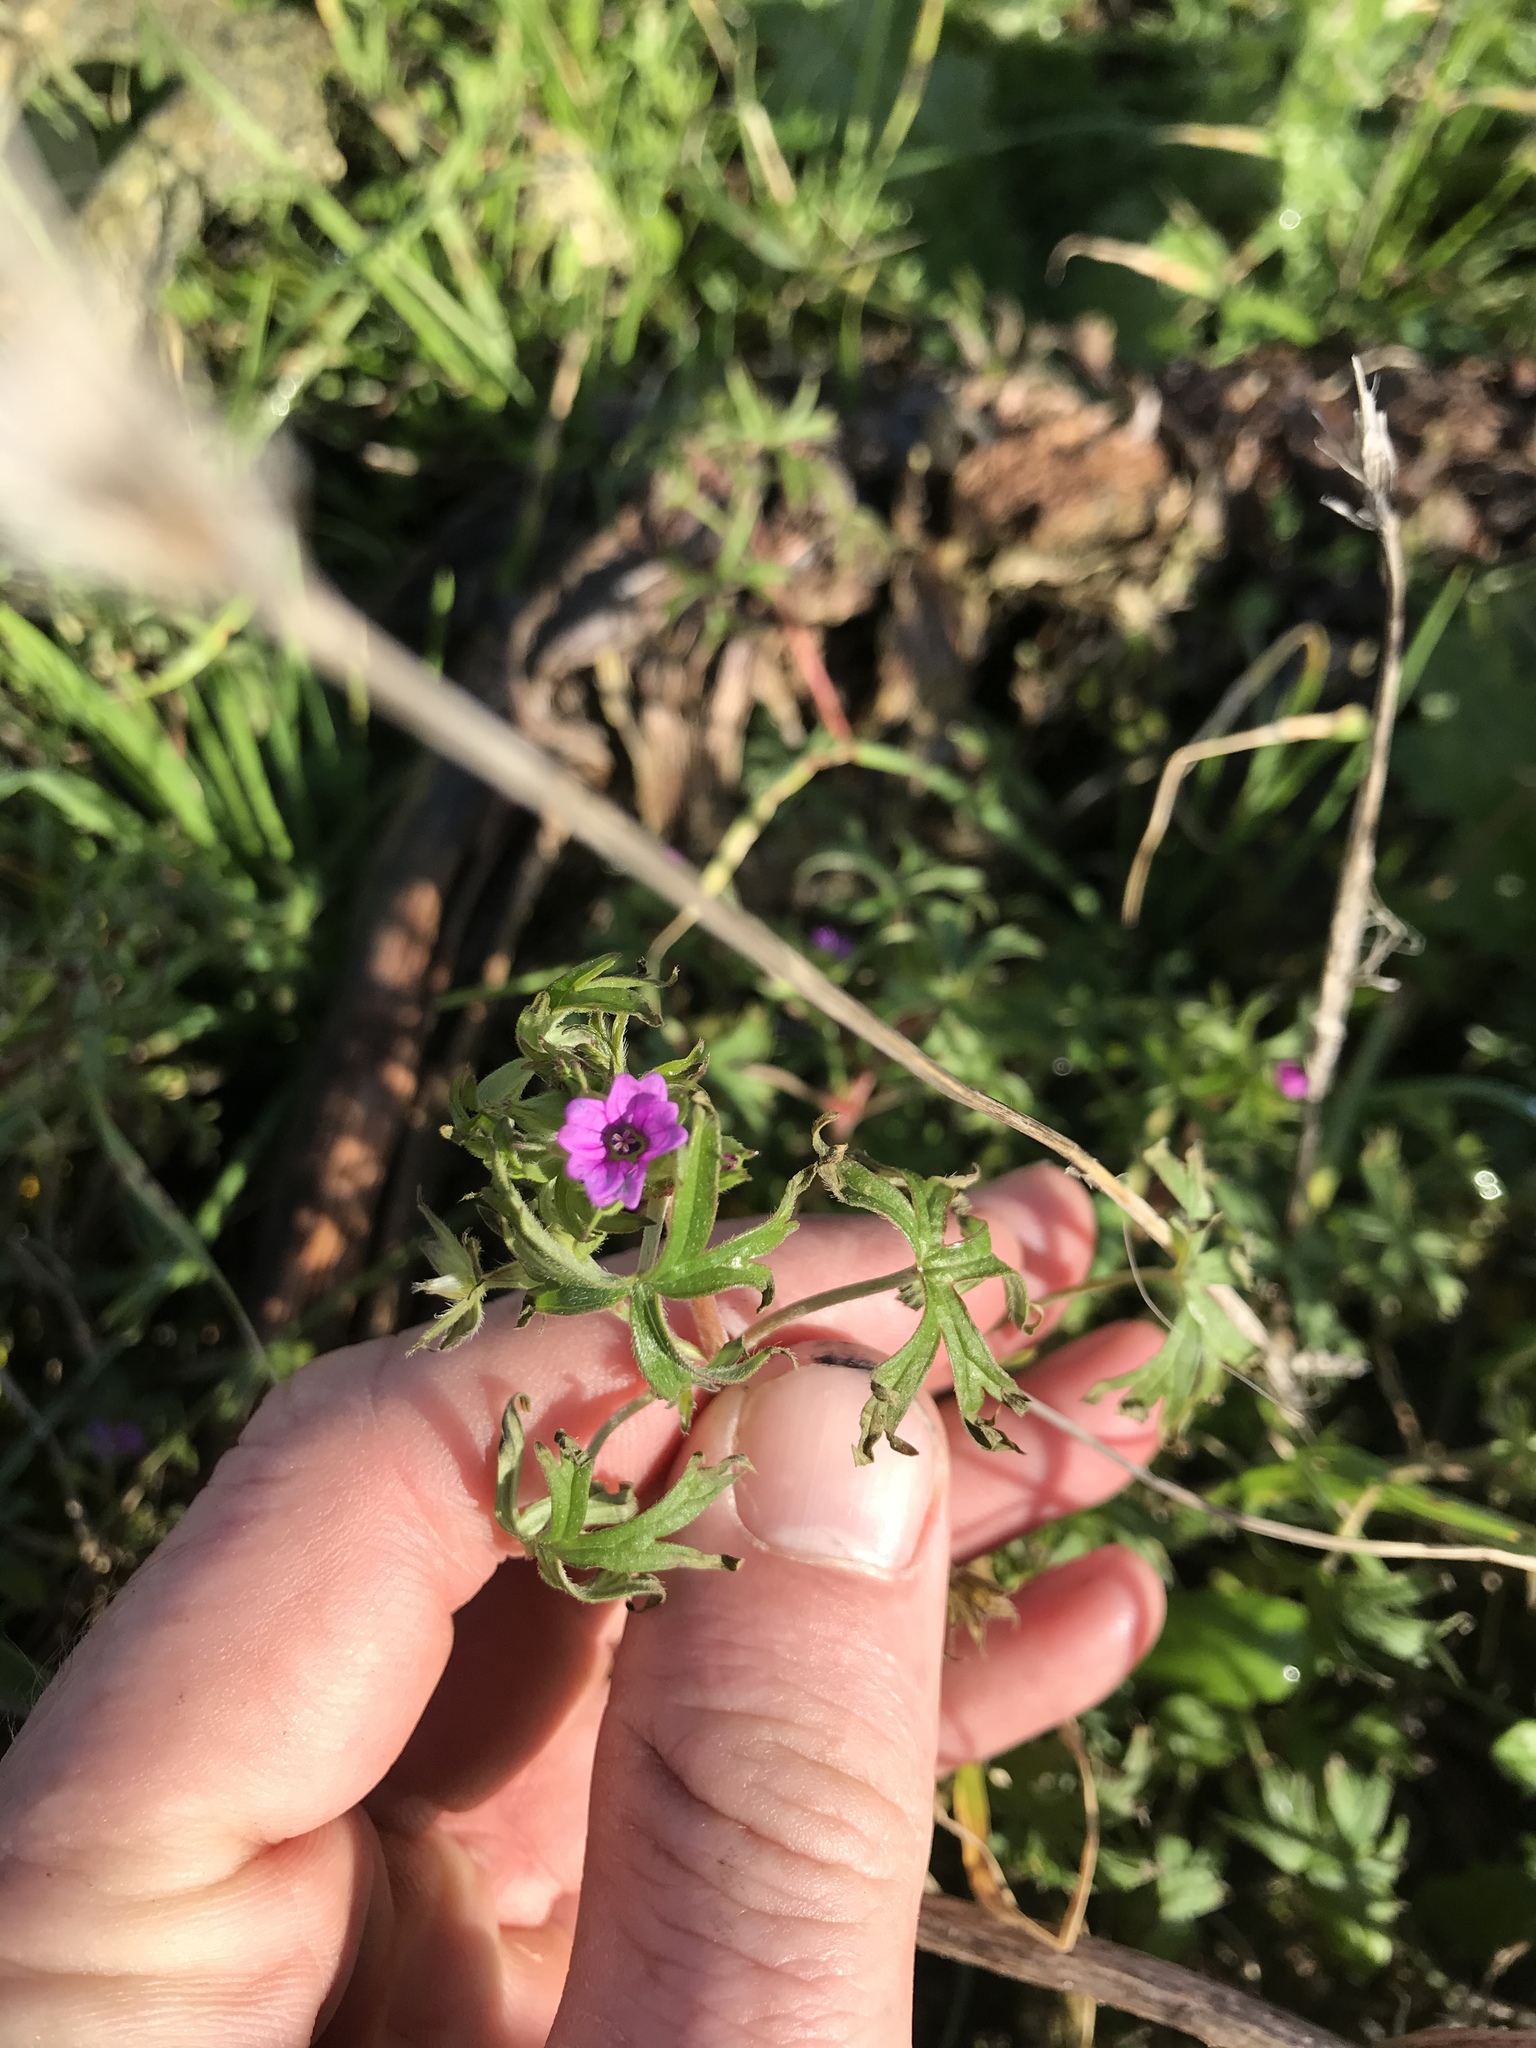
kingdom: Plantae
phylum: Tracheophyta
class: Magnoliopsida
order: Geraniales
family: Geraniaceae
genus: Geranium
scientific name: Geranium dissectum
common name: Cut-leaved crane's-bill
